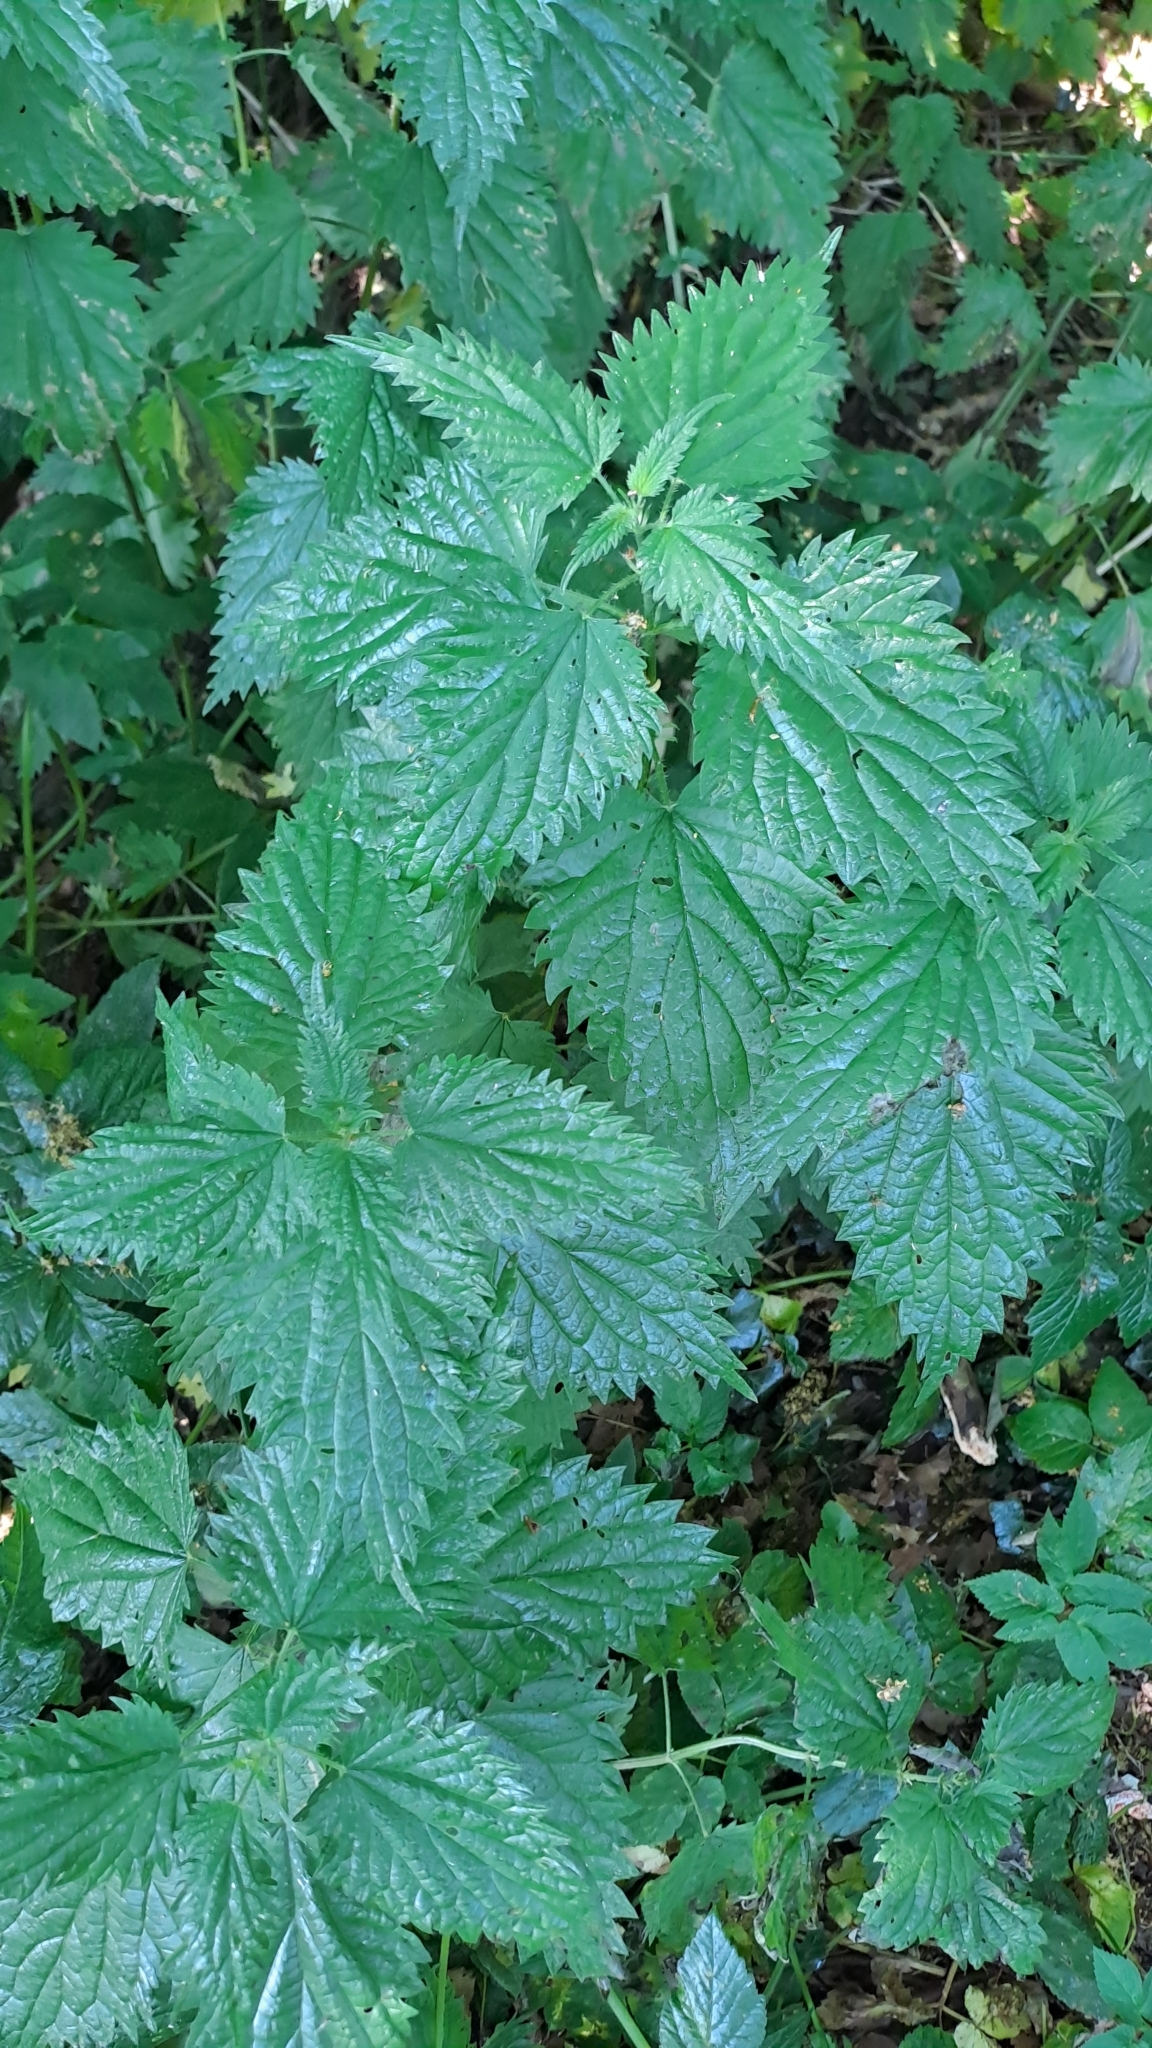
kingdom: Plantae
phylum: Tracheophyta
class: Magnoliopsida
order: Rosales
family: Urticaceae
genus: Urtica
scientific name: Urtica dioica
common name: Common nettle
